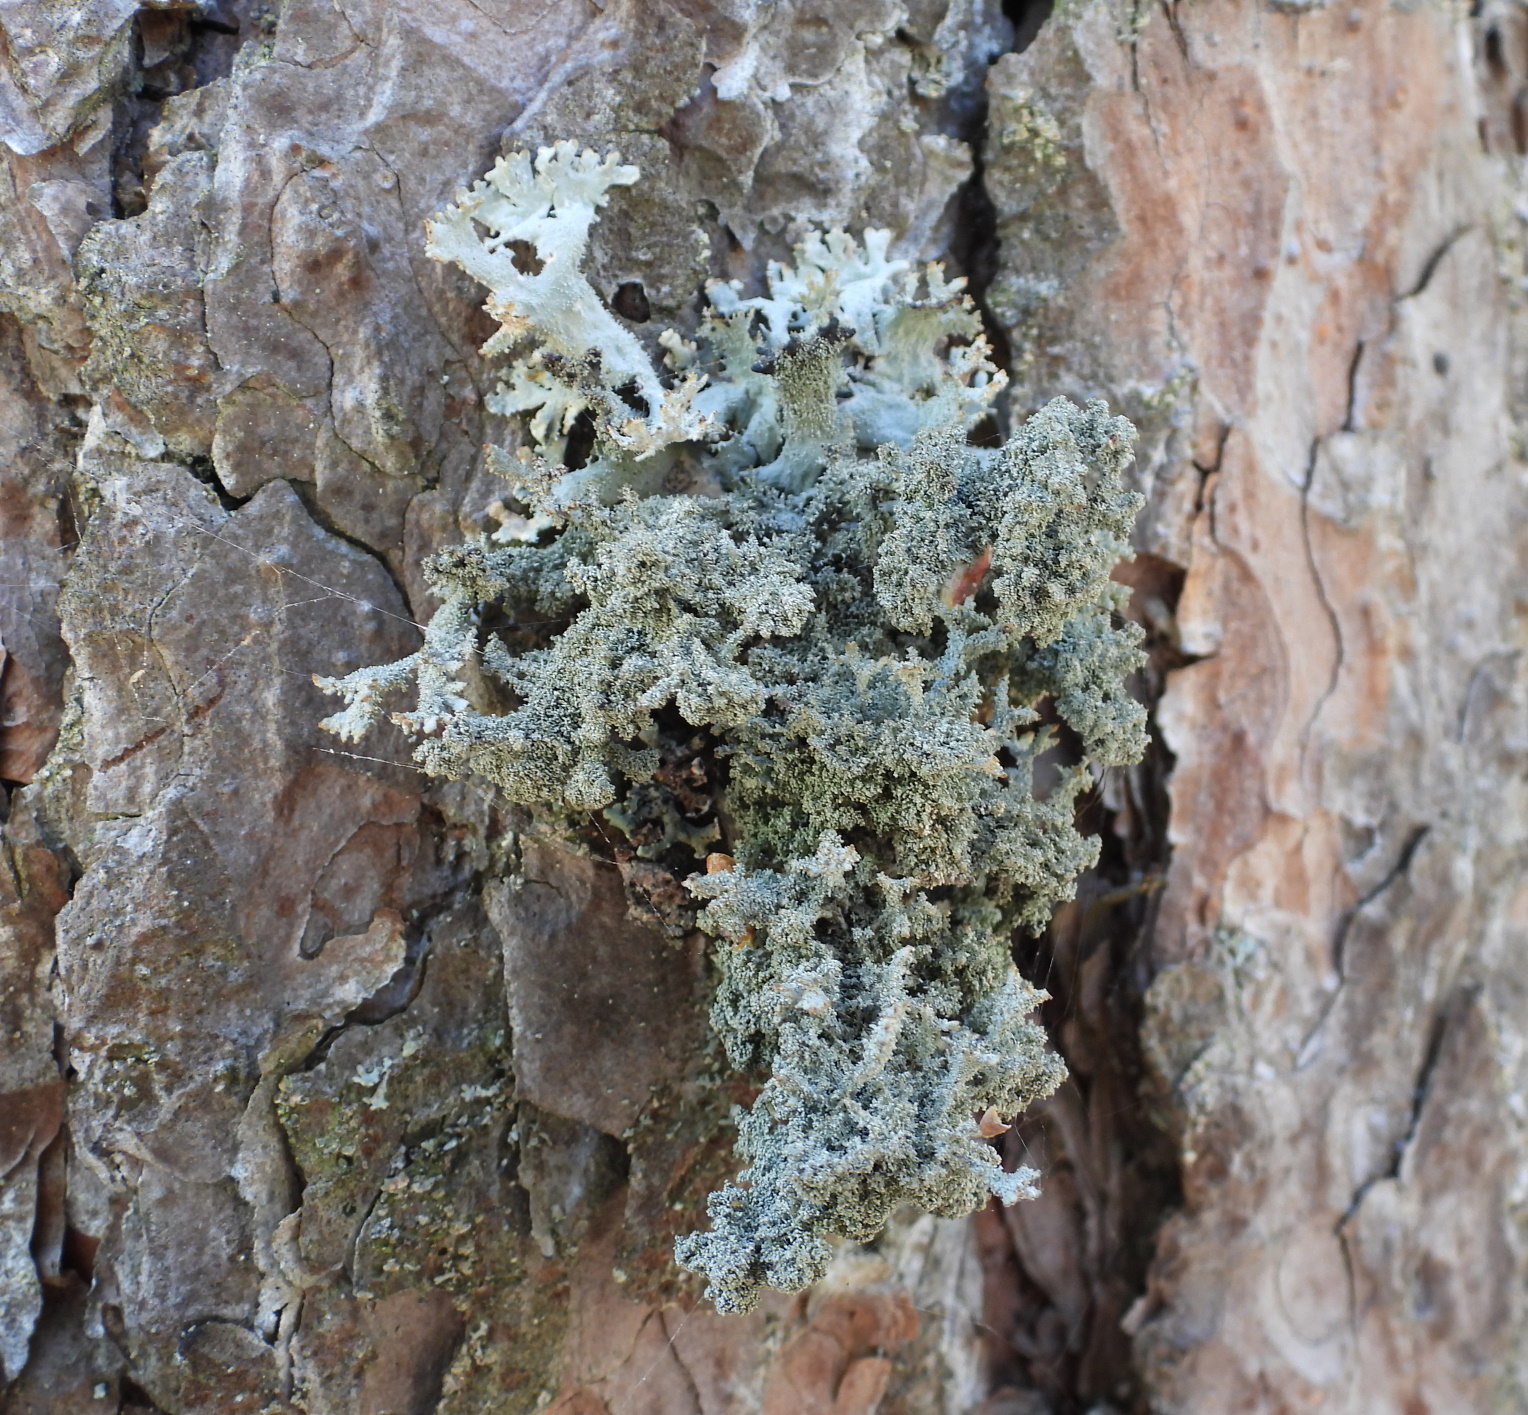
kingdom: Fungi
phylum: Ascomycota
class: Lecanoromycetes
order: Lecanorales
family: Parmeliaceae
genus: Pseudevernia
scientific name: Pseudevernia furfuracea
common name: Tree moss
